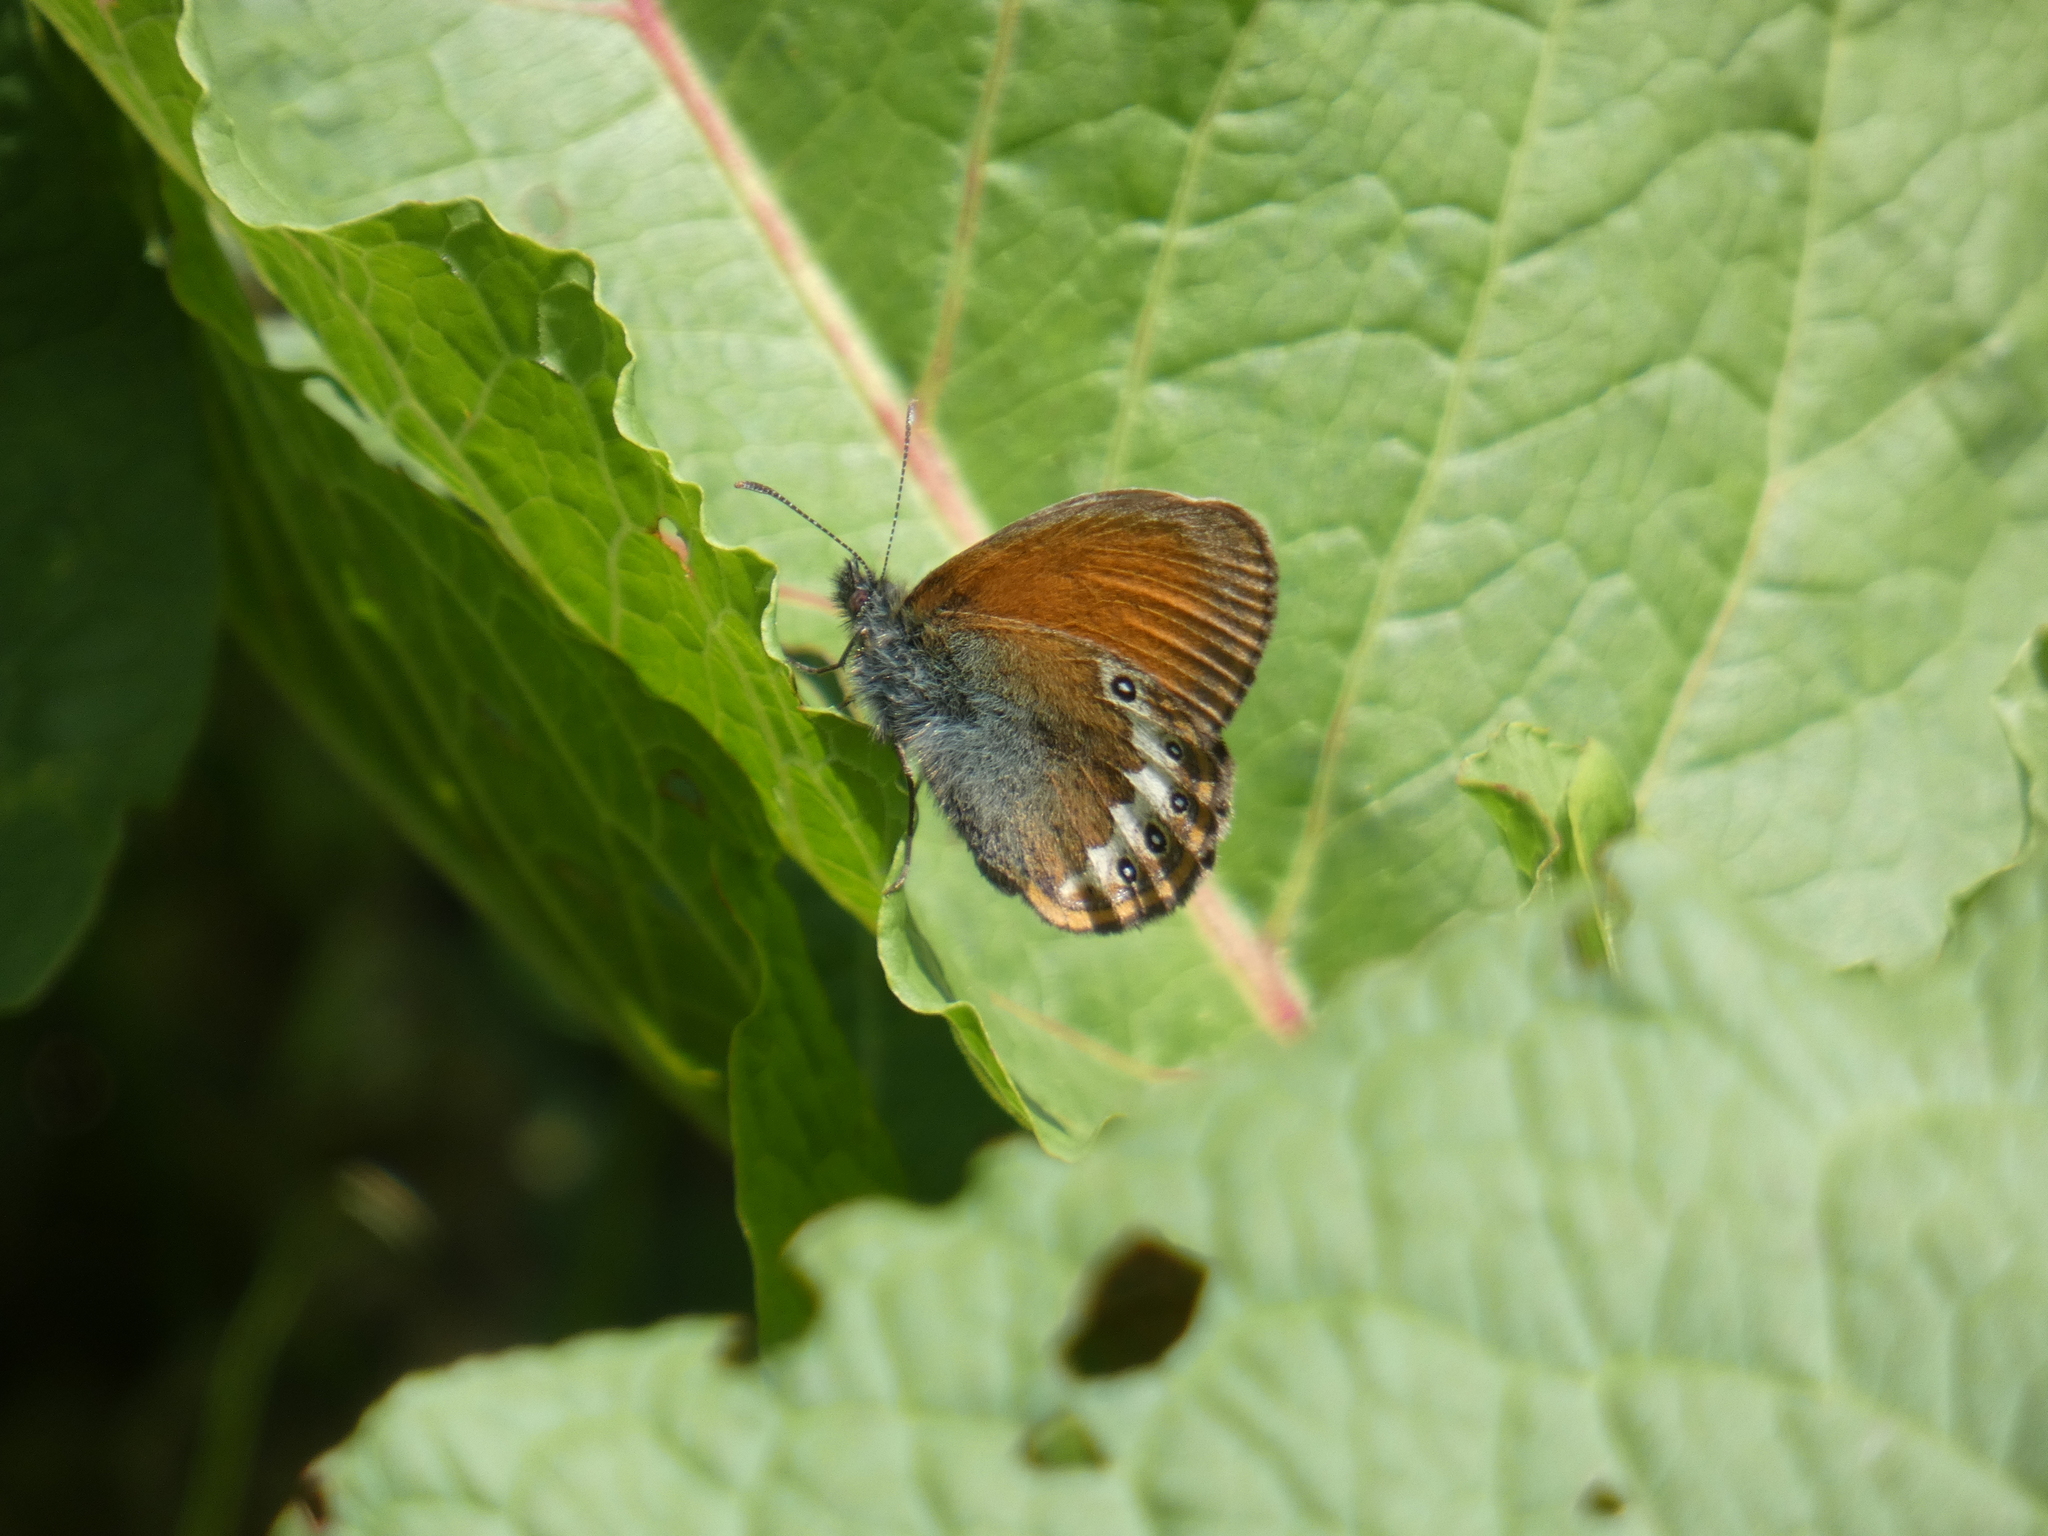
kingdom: Animalia
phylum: Arthropoda
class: Insecta
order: Lepidoptera
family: Nymphalidae
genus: Coenonympha
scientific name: Coenonympha
